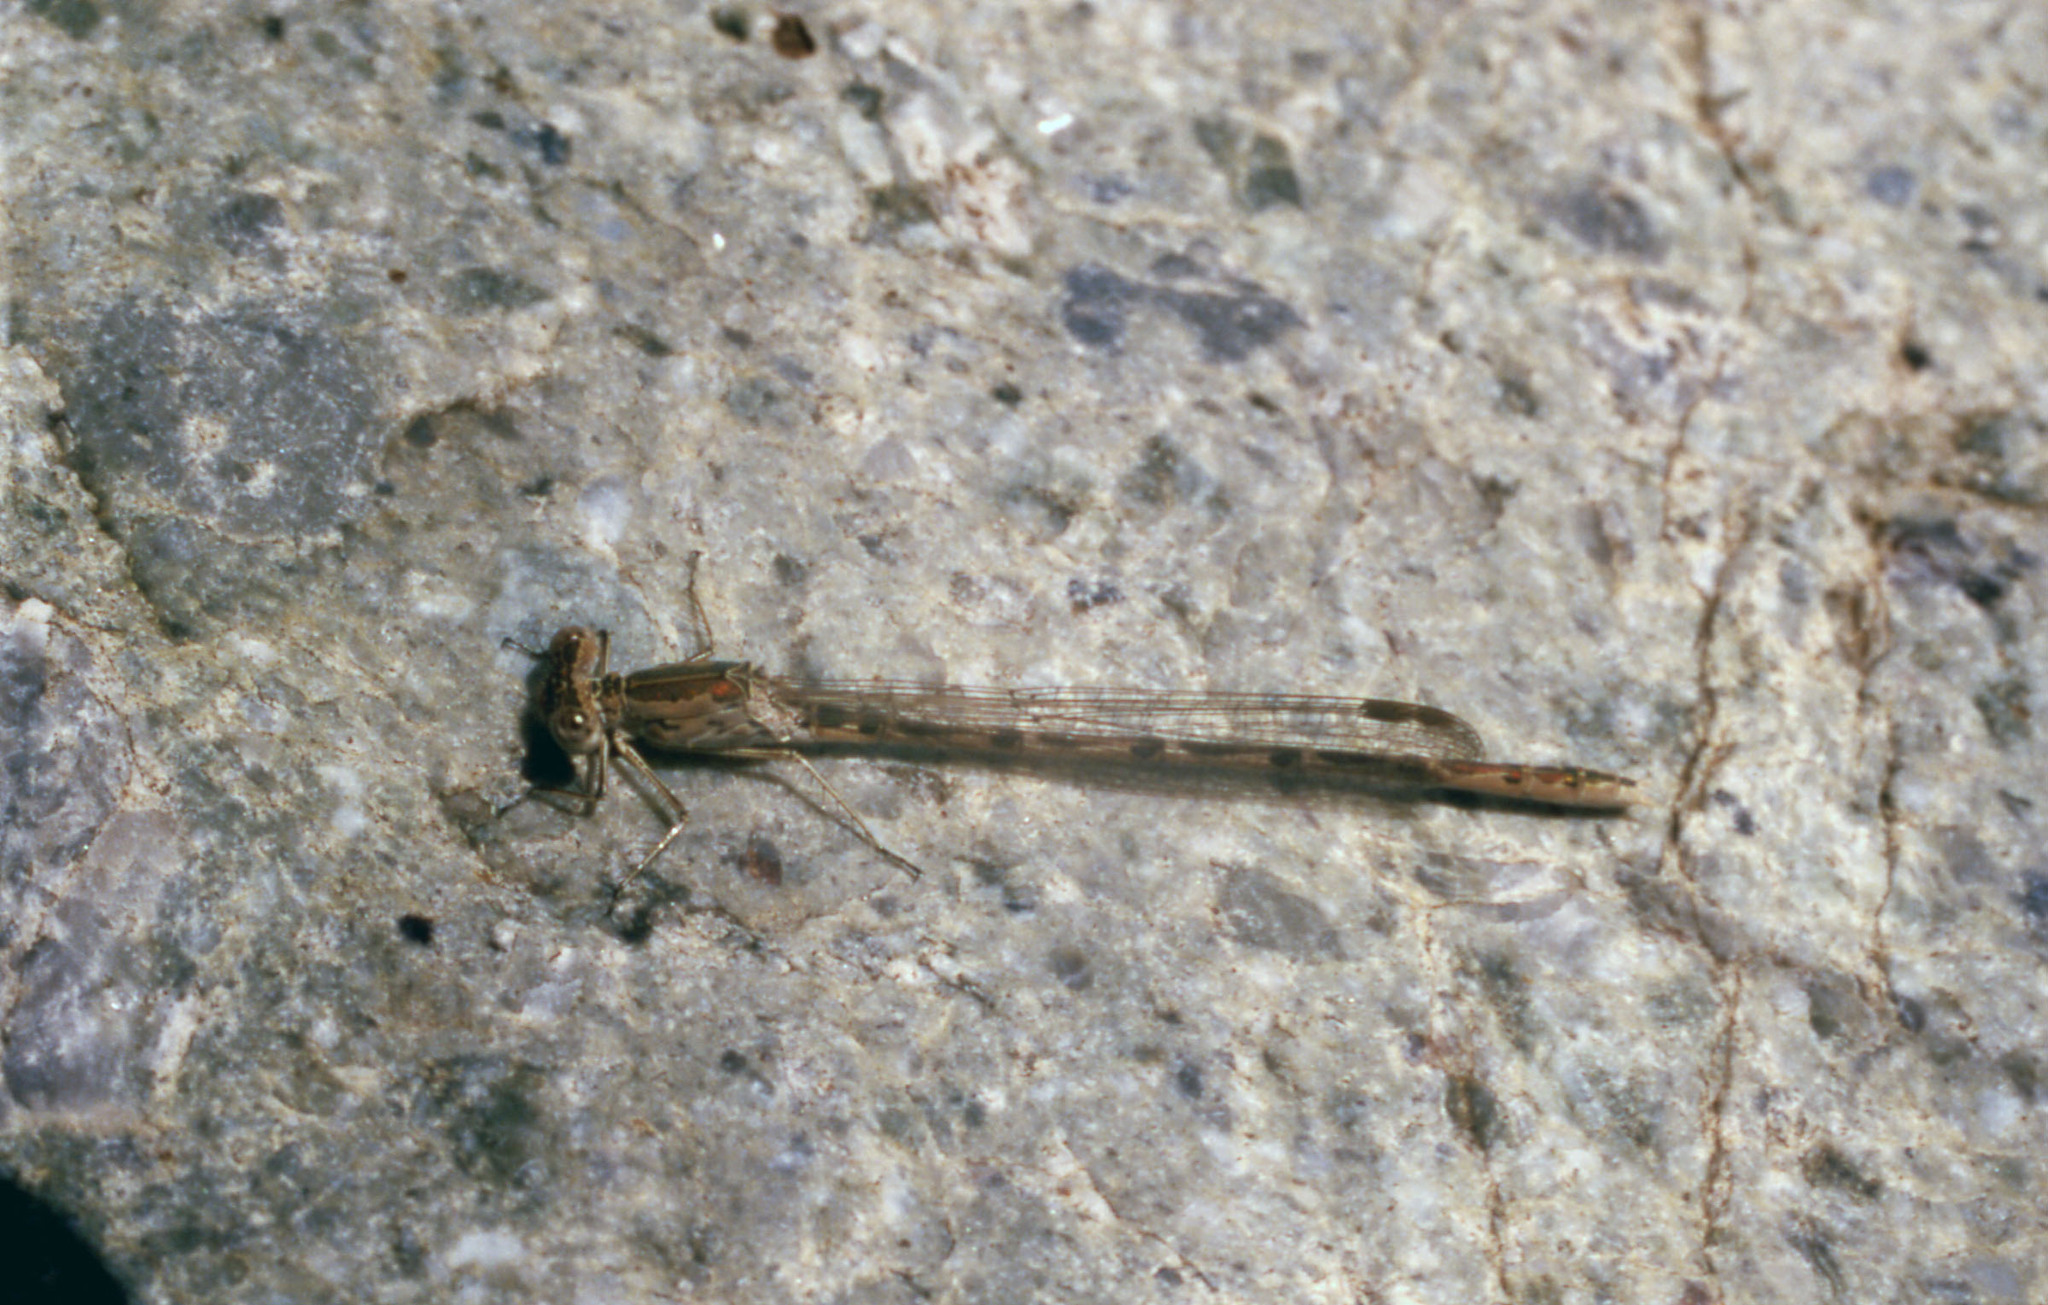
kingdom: Animalia
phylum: Arthropoda
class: Insecta
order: Odonata
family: Lestidae
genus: Sympecma
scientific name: Sympecma gobica
